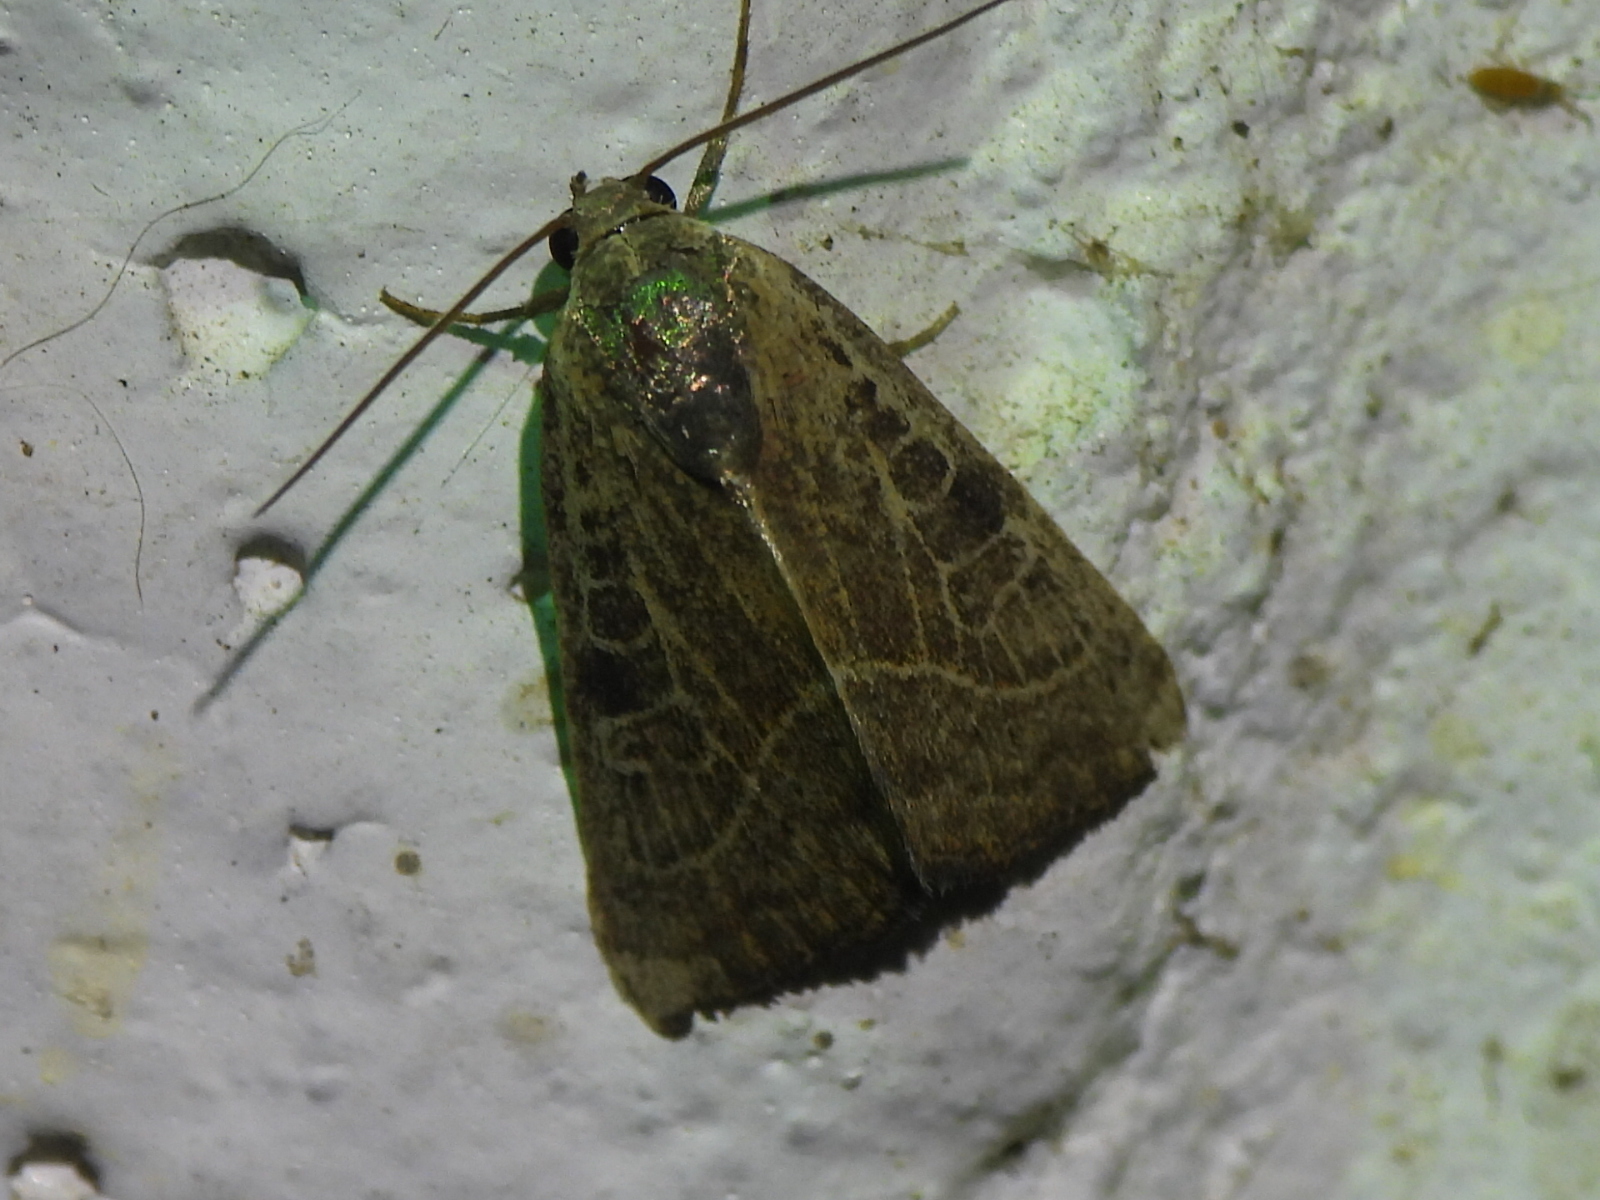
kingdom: Animalia
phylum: Arthropoda
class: Insecta
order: Lepidoptera
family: Noctuidae
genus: Galgula
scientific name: Galgula partita
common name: Wedgeling
